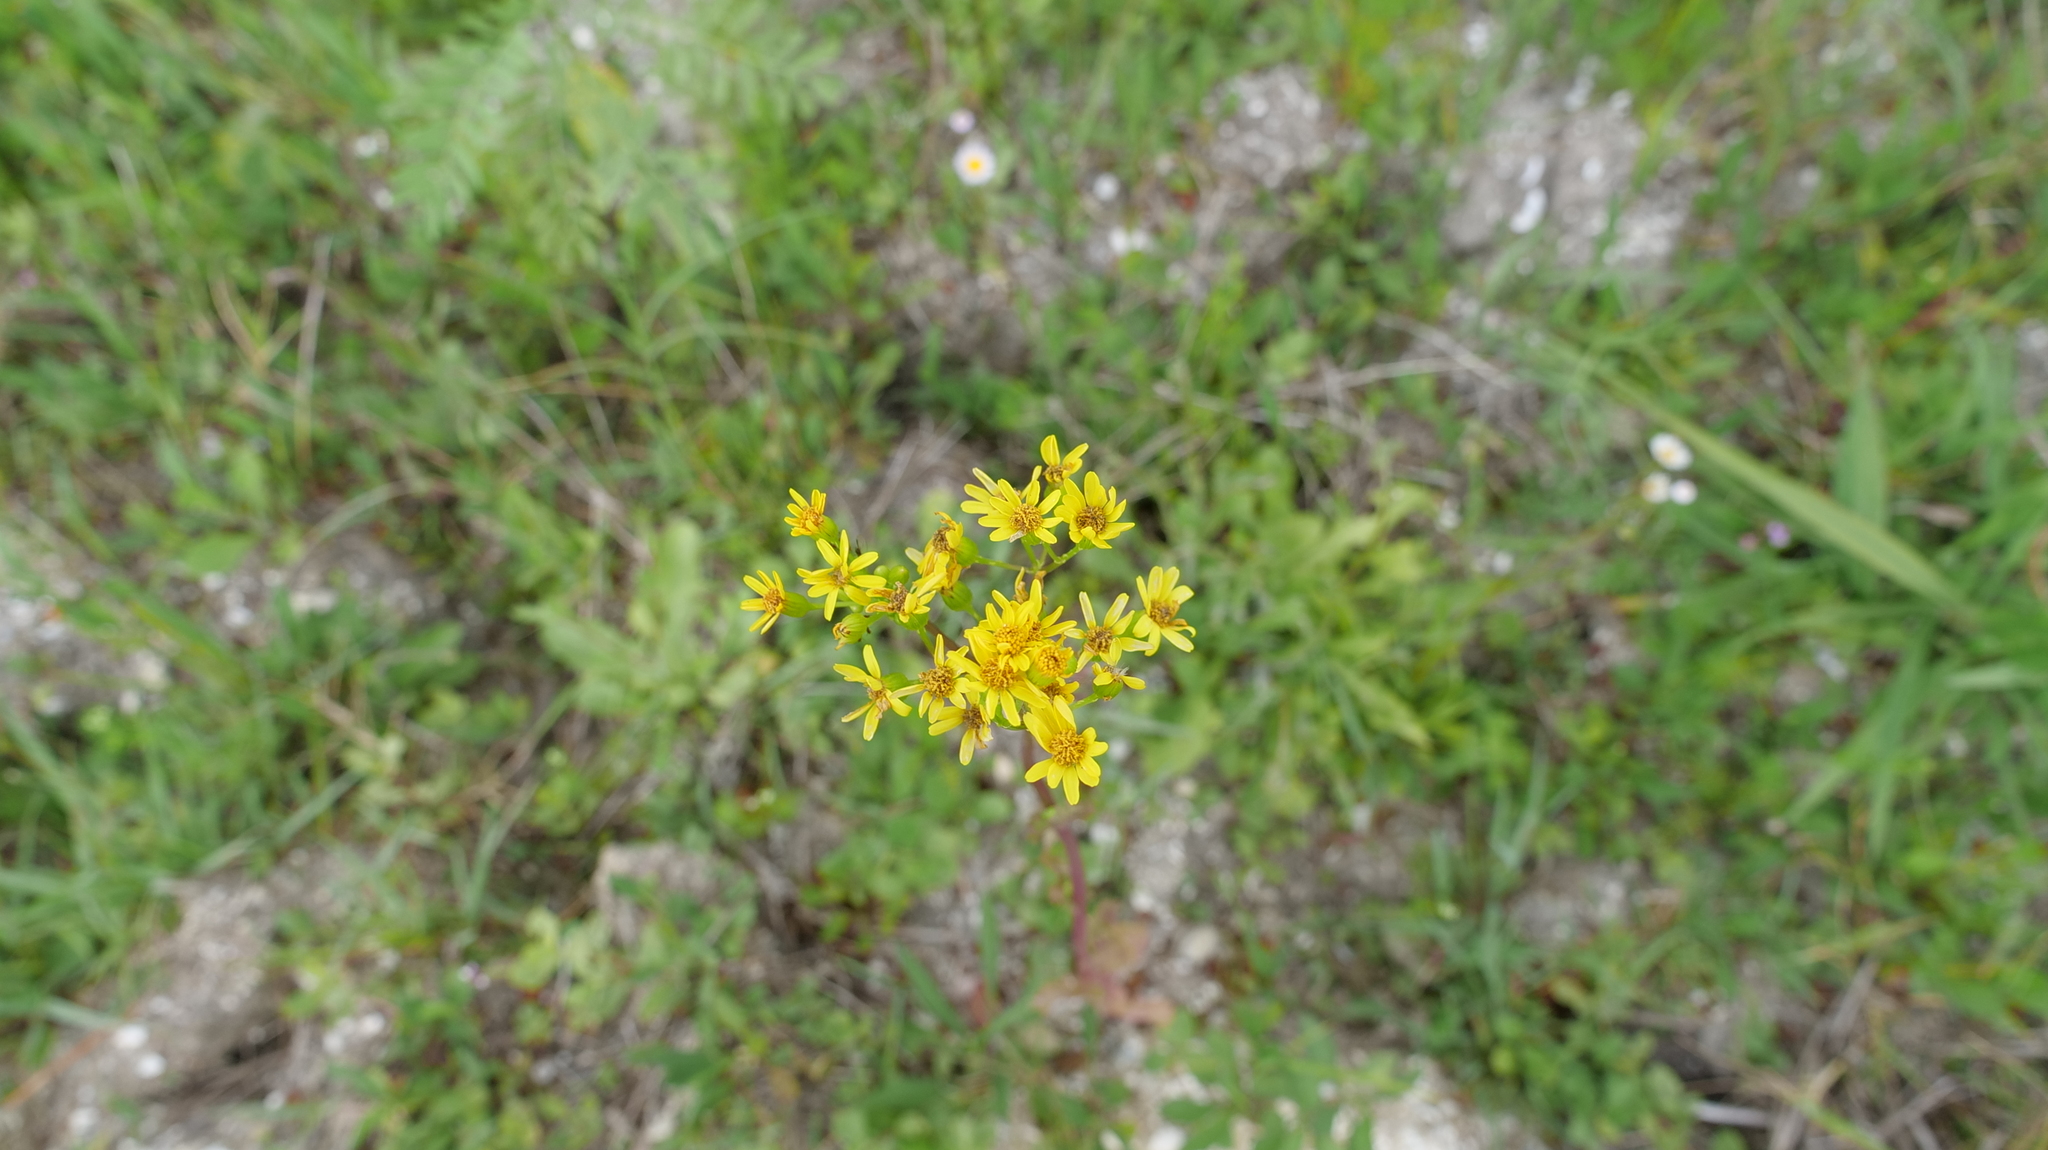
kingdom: Plantae
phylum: Tracheophyta
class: Magnoliopsida
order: Asterales
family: Asteraceae
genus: Packera
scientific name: Packera glabella
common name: Butterweed
